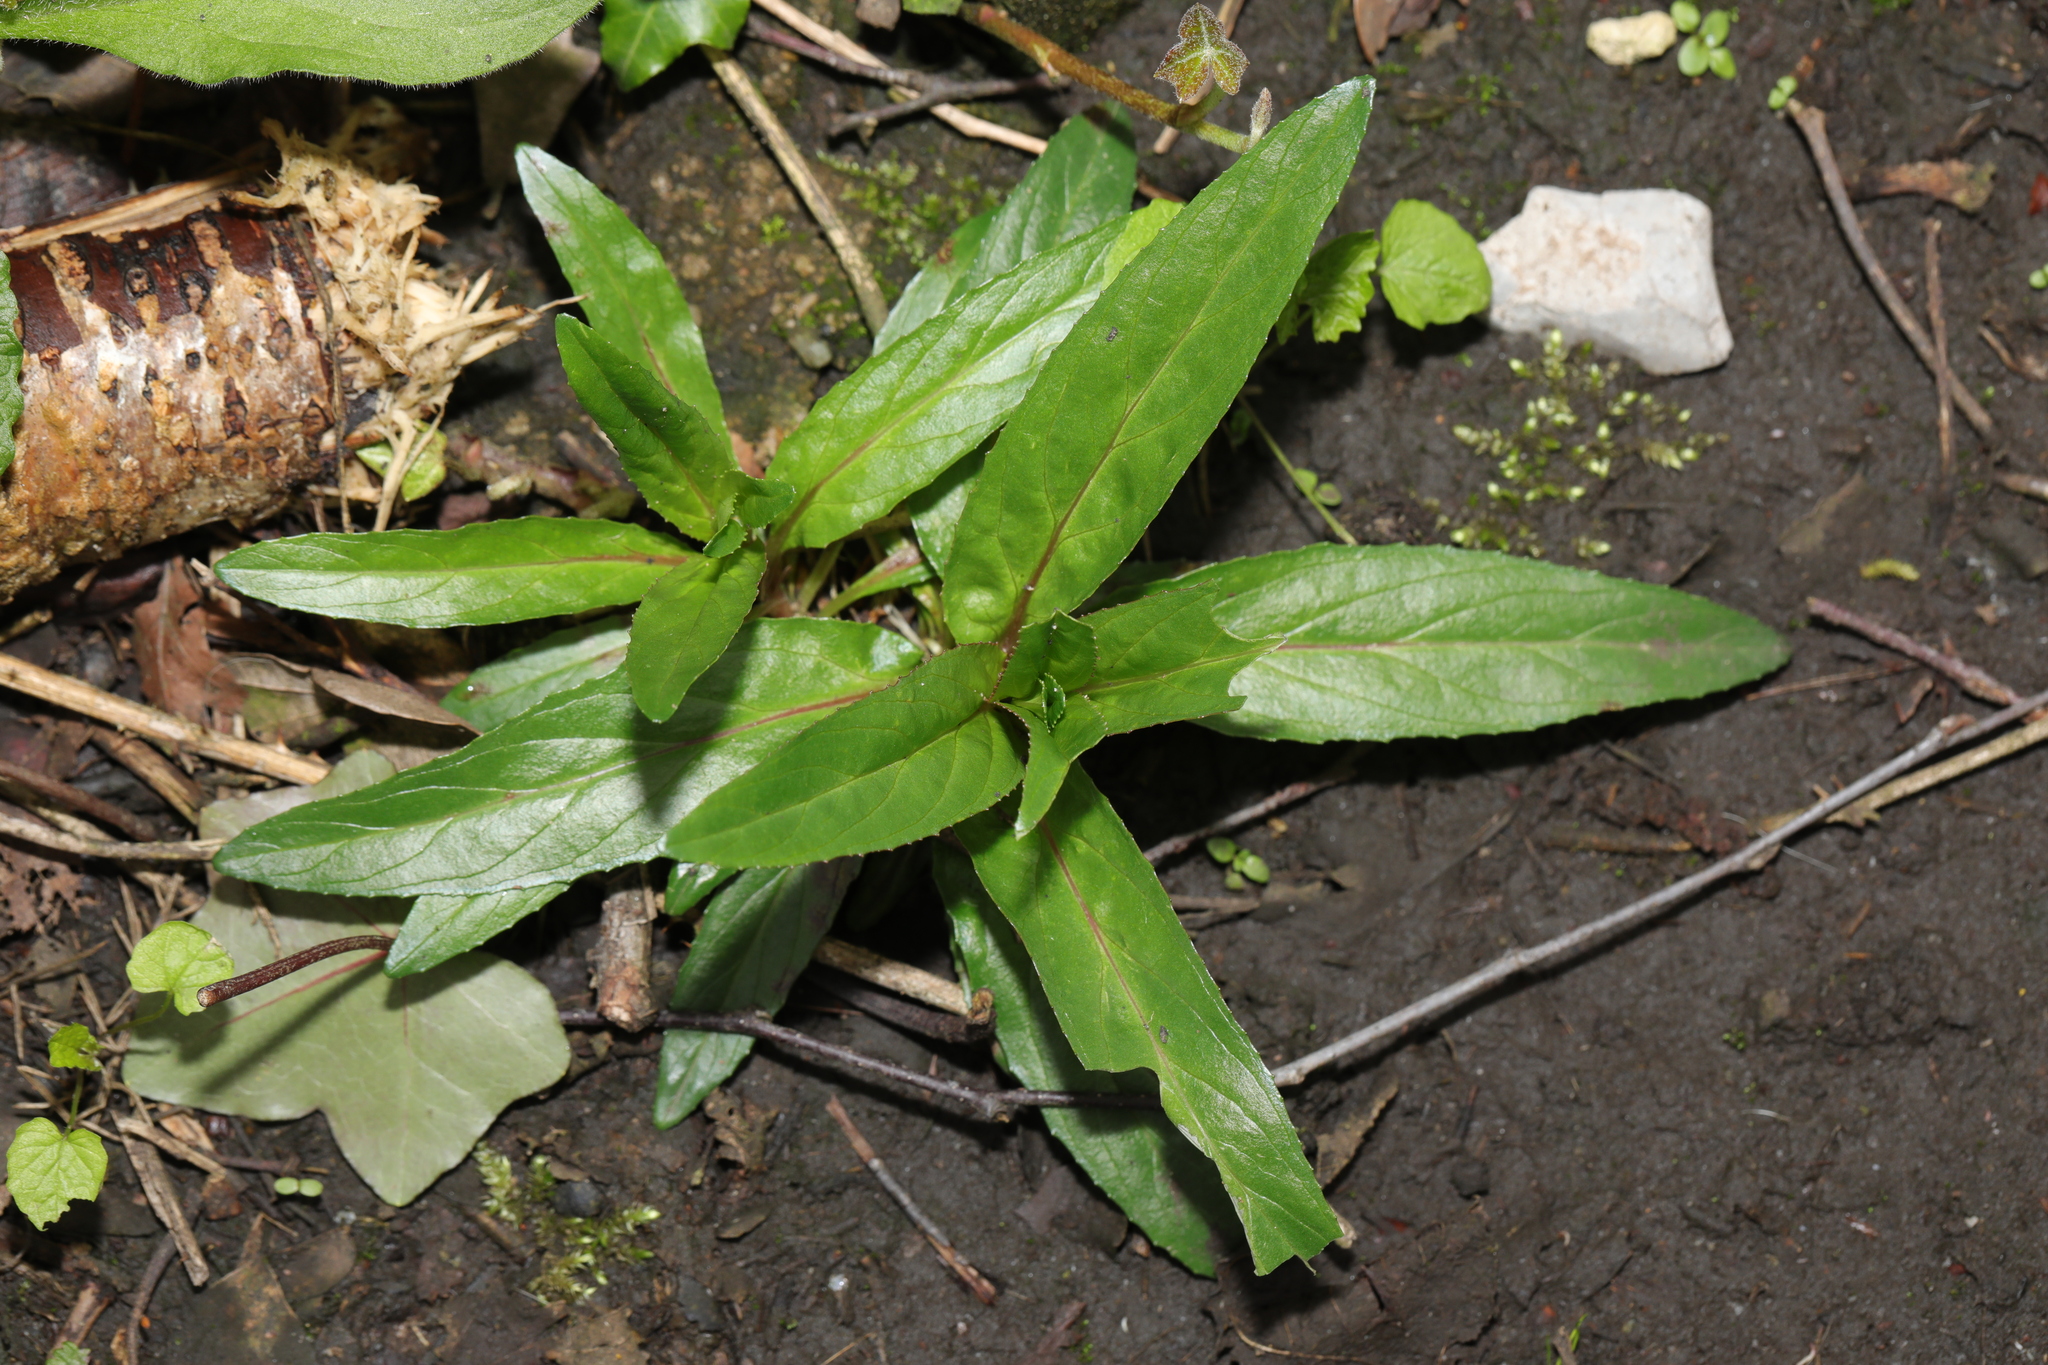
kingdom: Plantae
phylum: Tracheophyta
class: Magnoliopsida
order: Myrtales
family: Onagraceae
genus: Epilobium
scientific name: Epilobium
